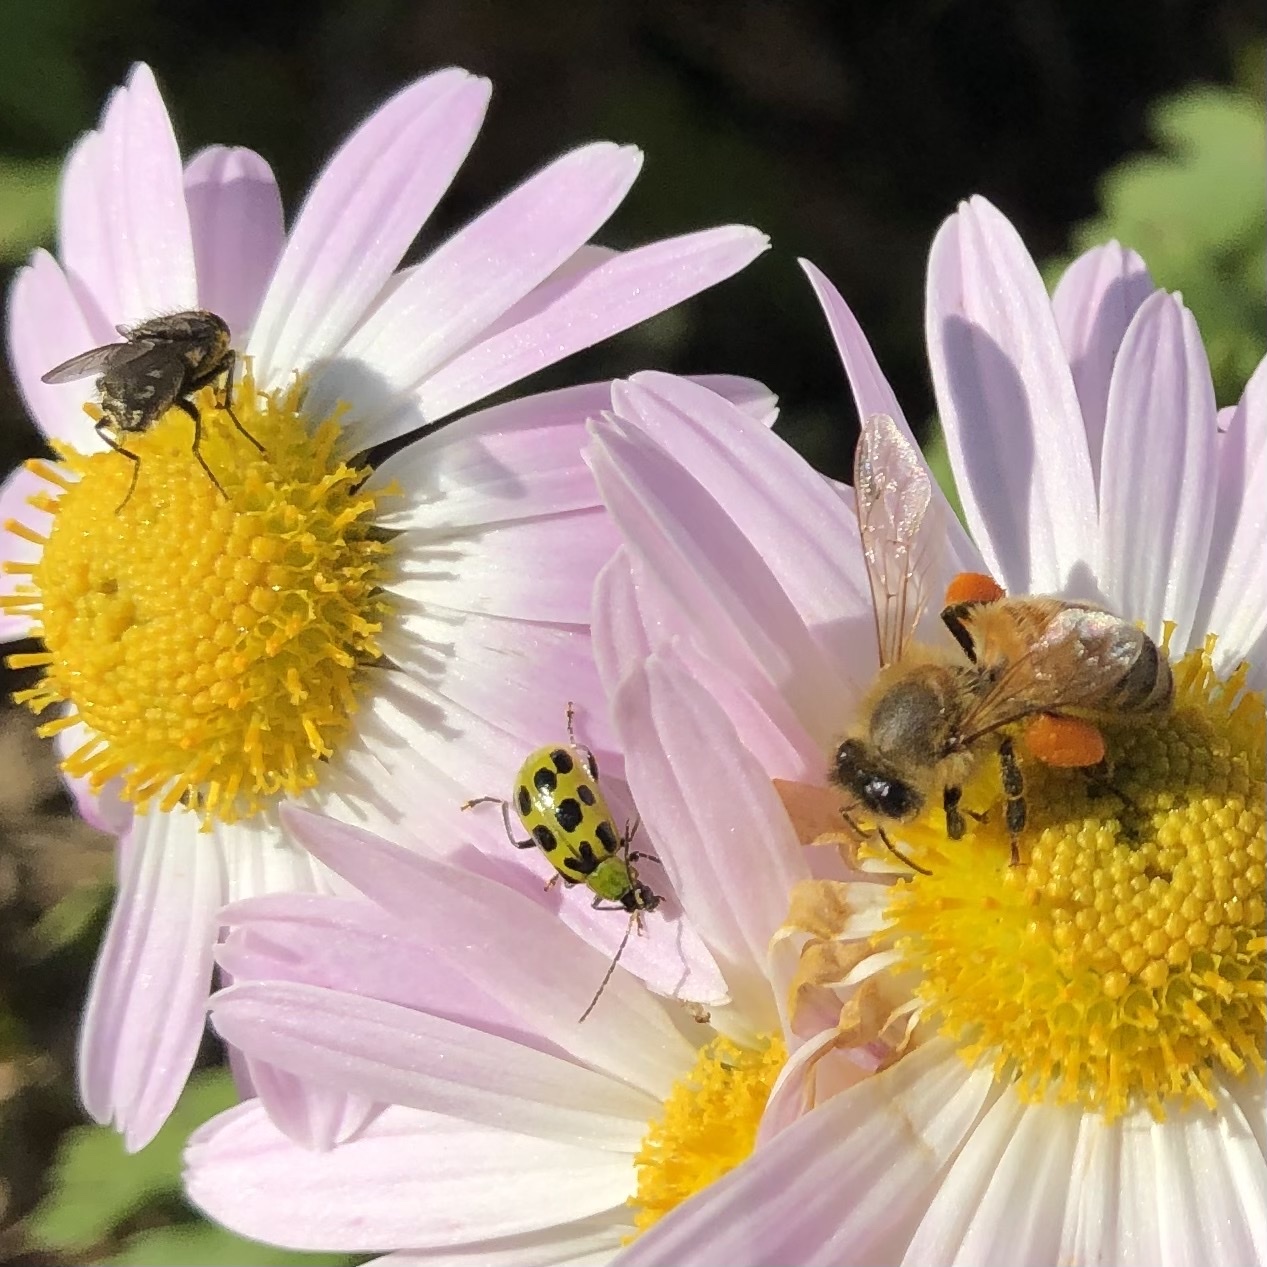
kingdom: Animalia
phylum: Arthropoda
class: Insecta
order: Coleoptera
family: Chrysomelidae
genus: Diabrotica
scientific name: Diabrotica undecimpunctata
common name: Spotted cucumber beetle
